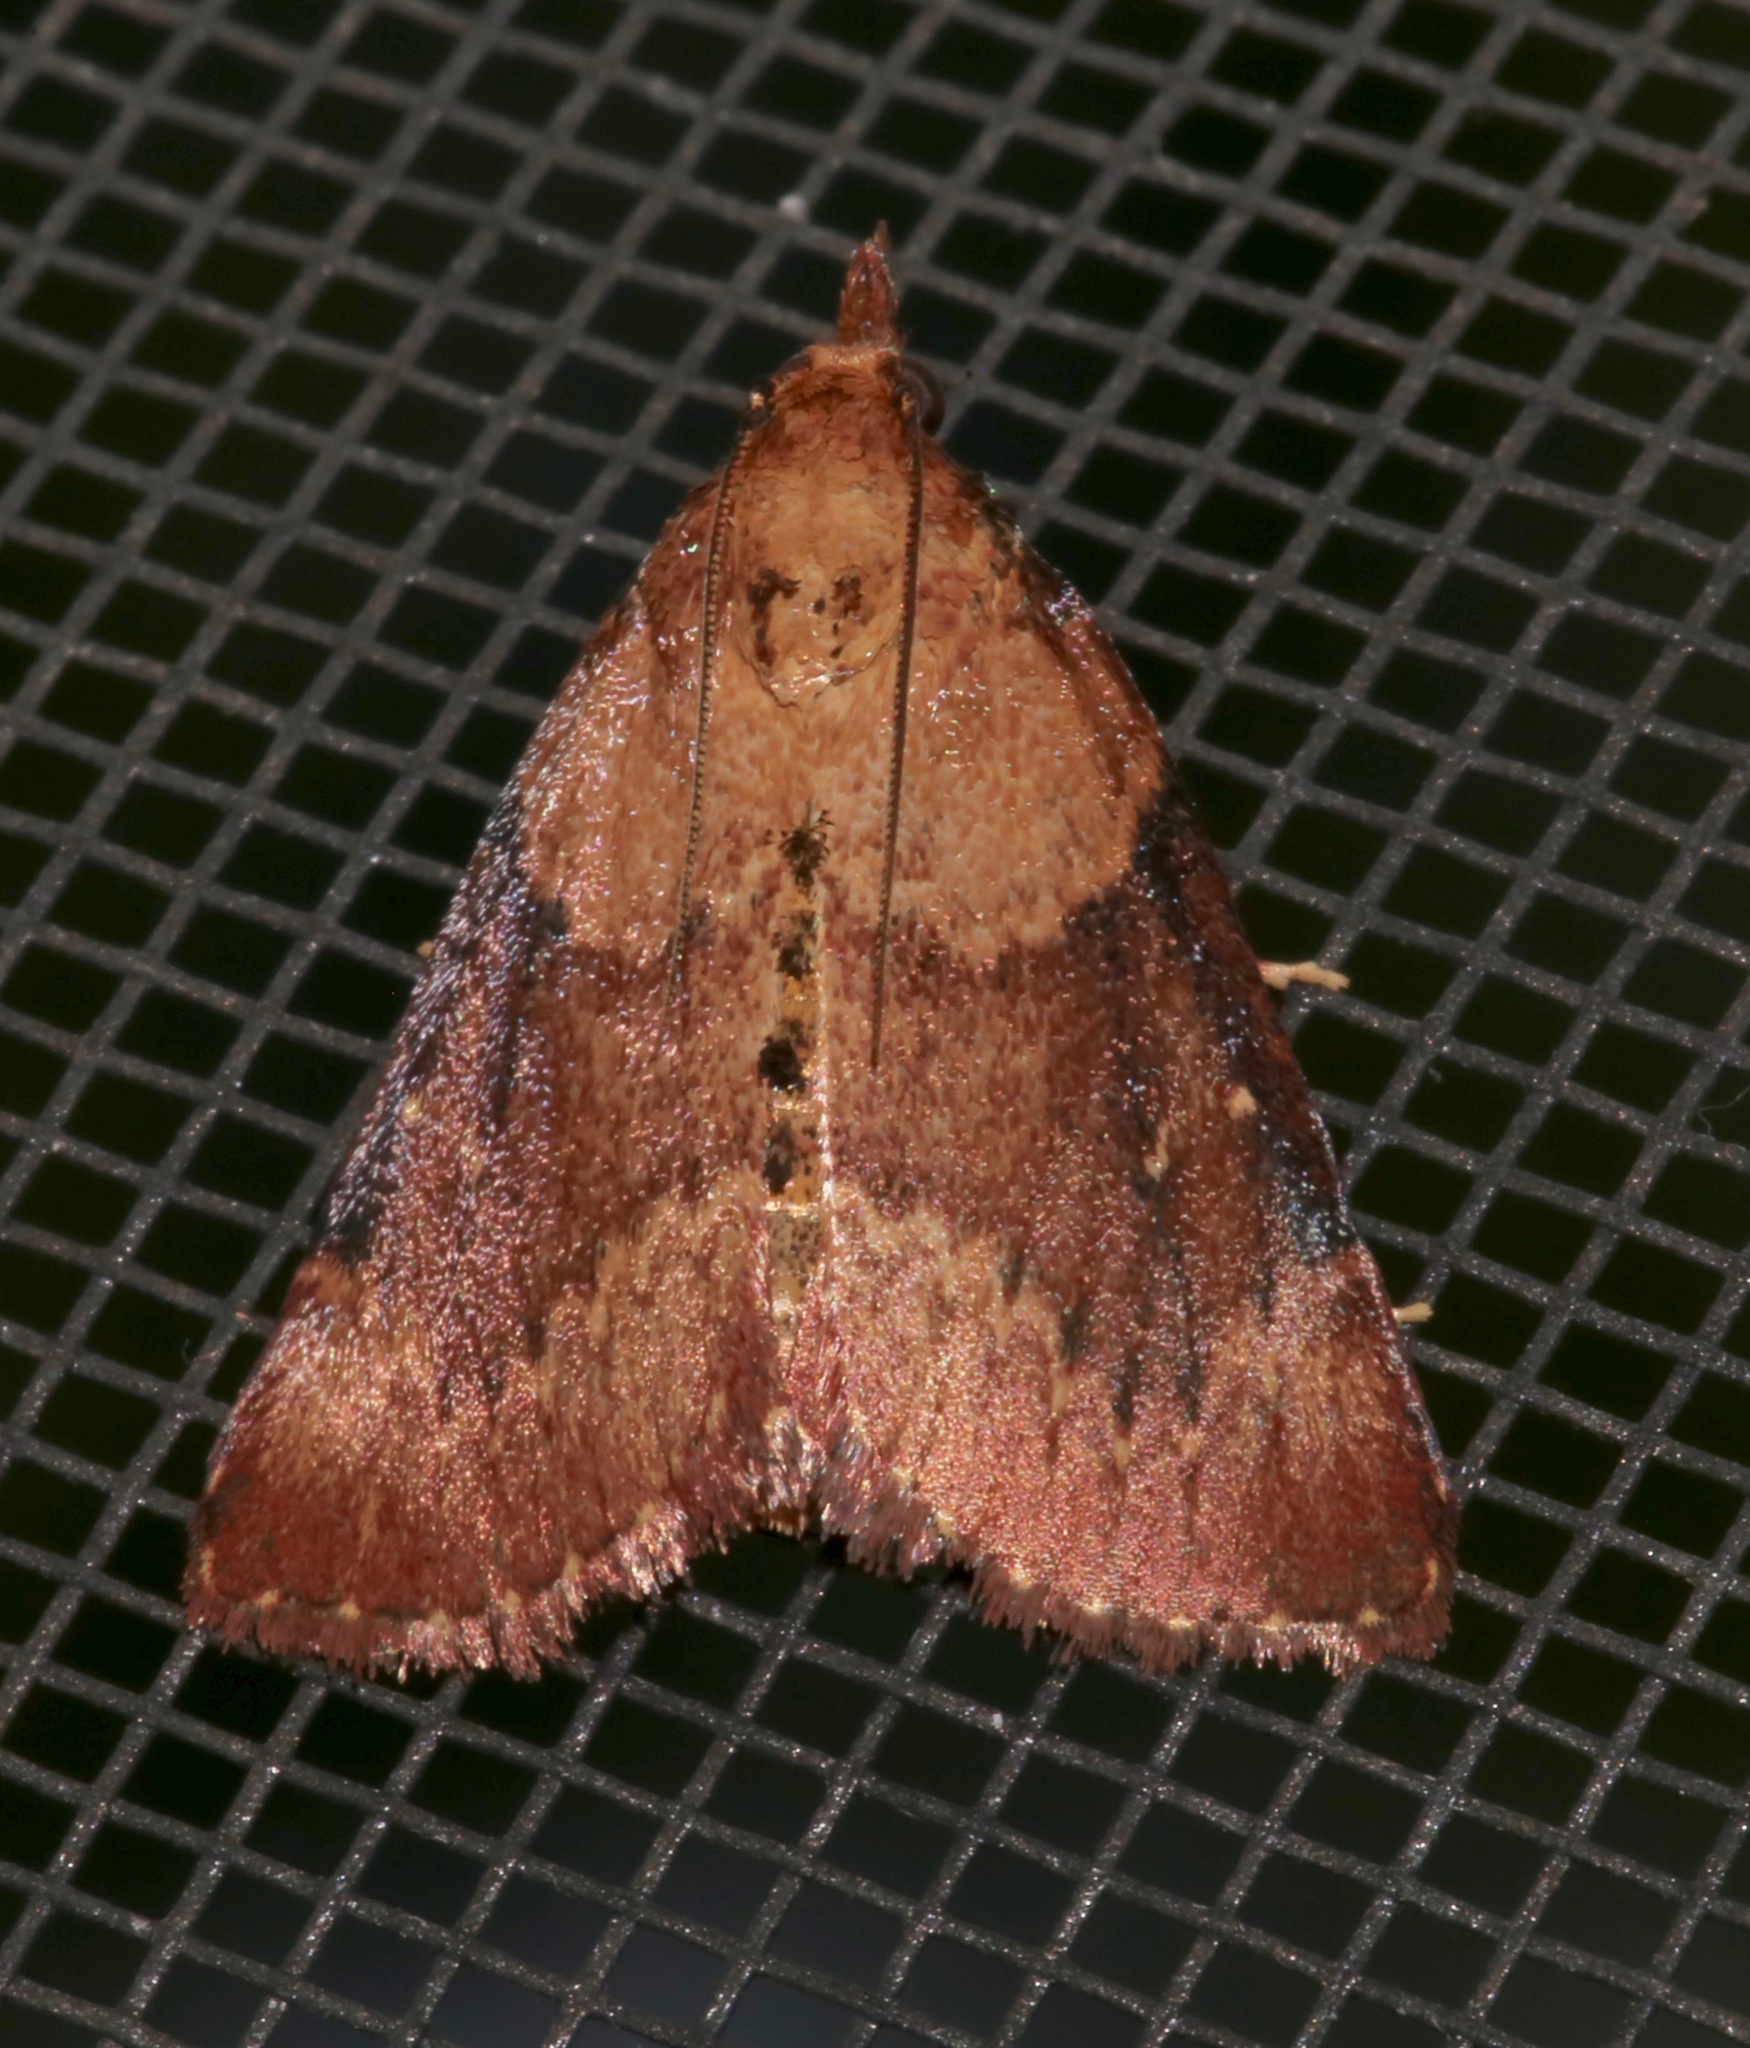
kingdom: Animalia
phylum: Arthropoda
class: Insecta
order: Lepidoptera
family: Pyralidae
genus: Omphalocera
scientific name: Omphalocera munroei
